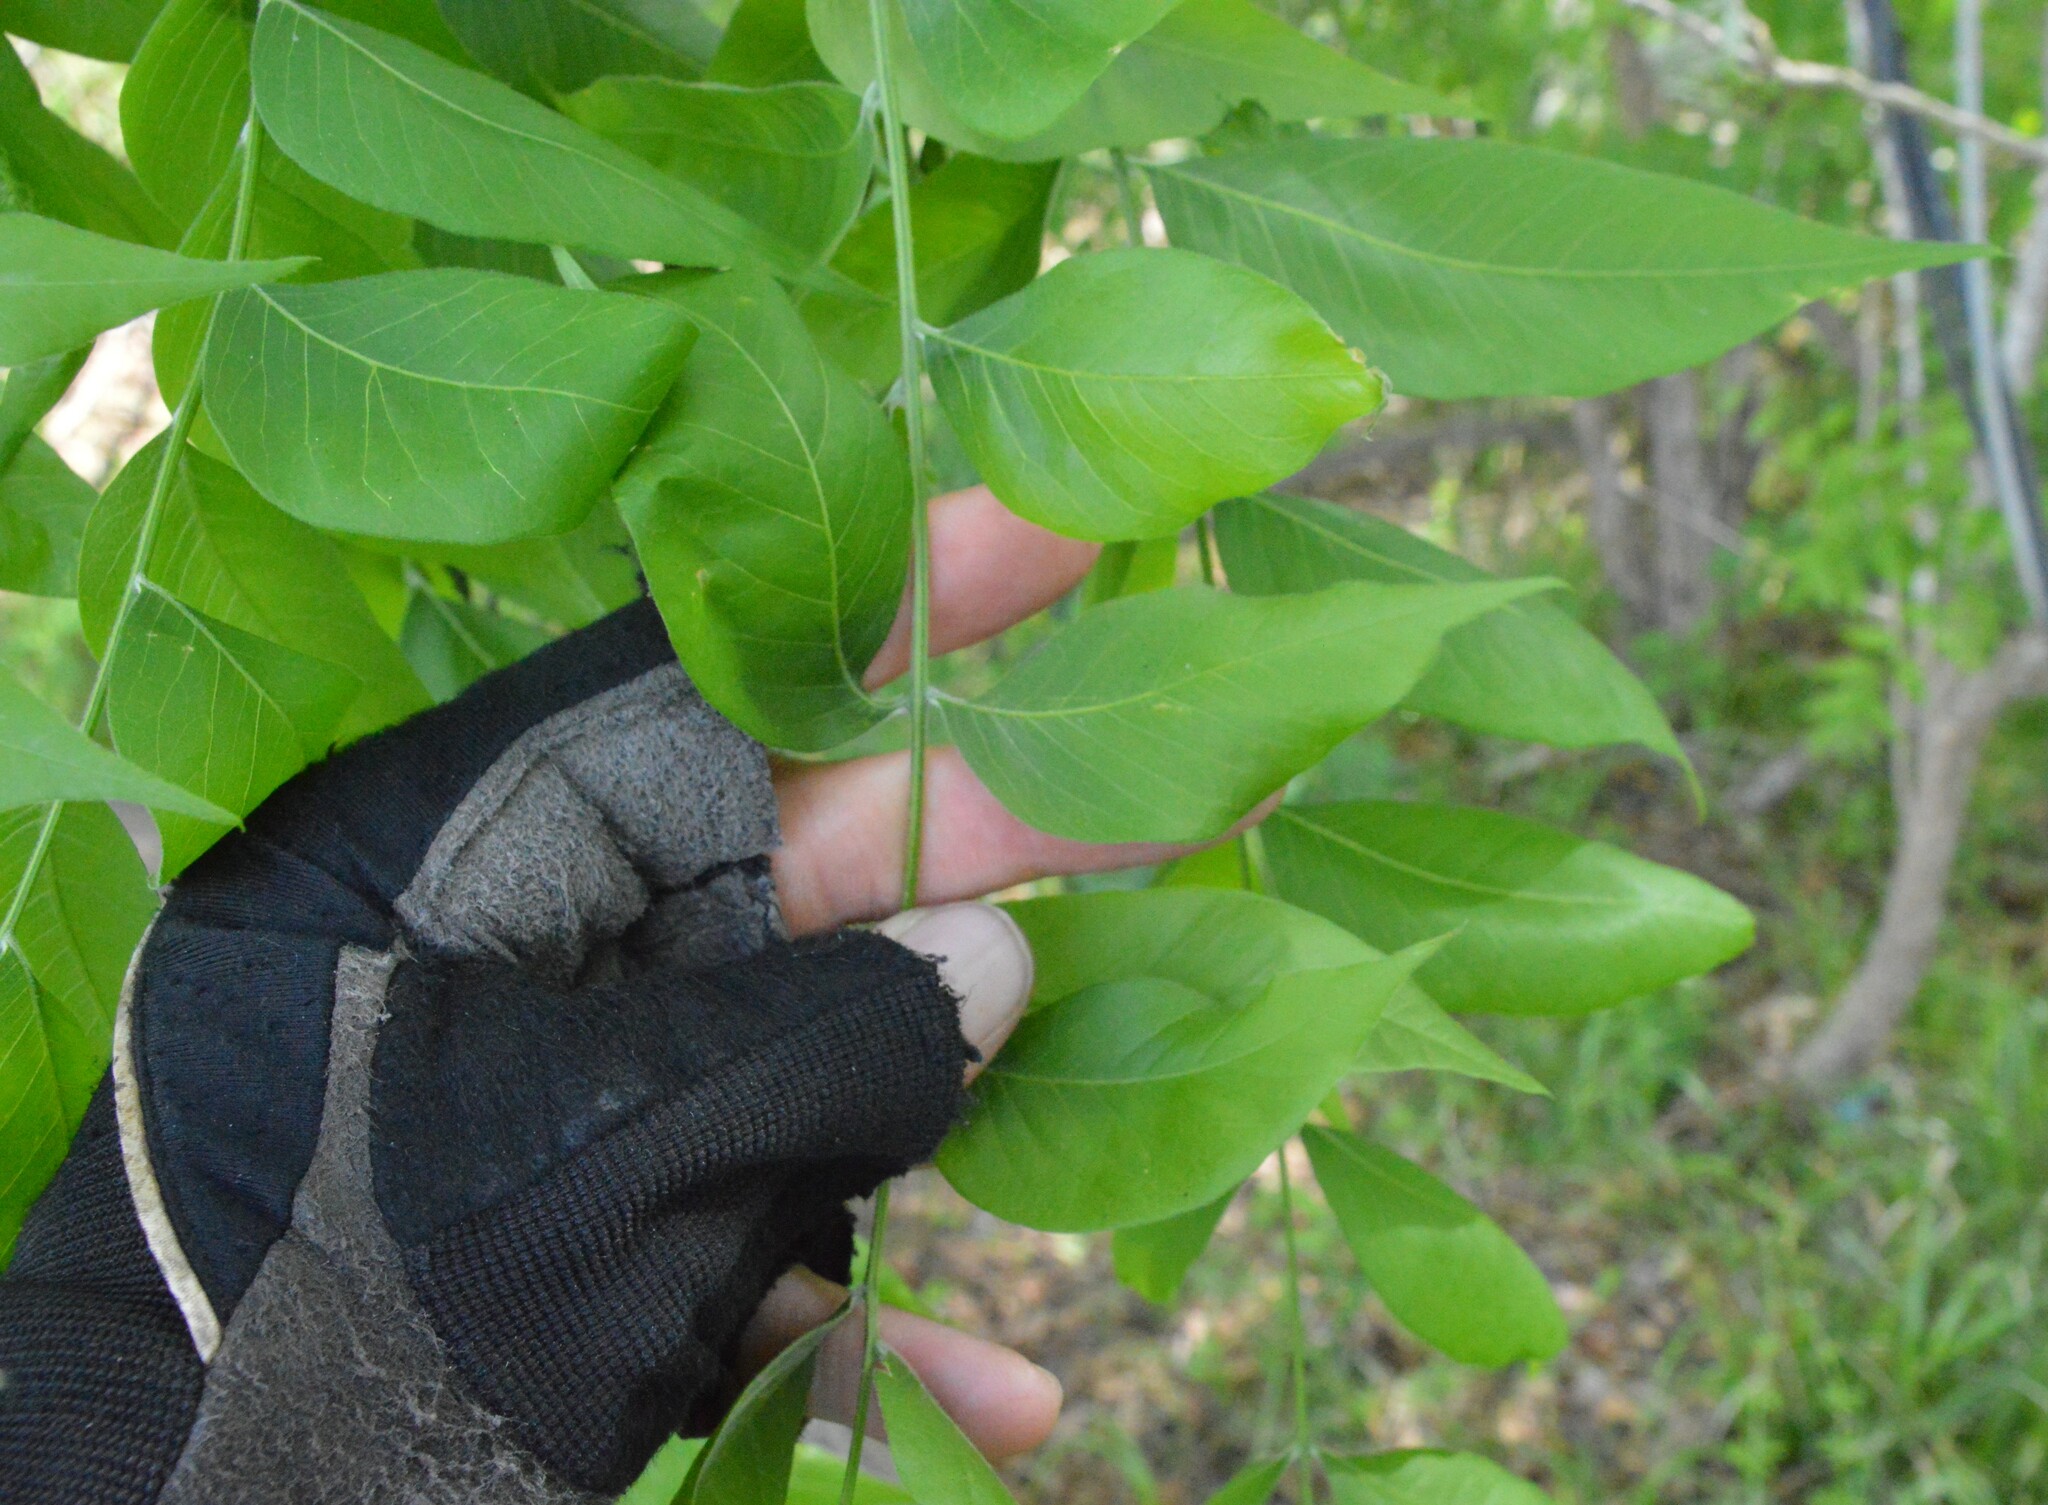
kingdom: Plantae
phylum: Tracheophyta
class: Magnoliopsida
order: Sapindales
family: Sapindaceae
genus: Sapindus
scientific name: Sapindus drummondii
